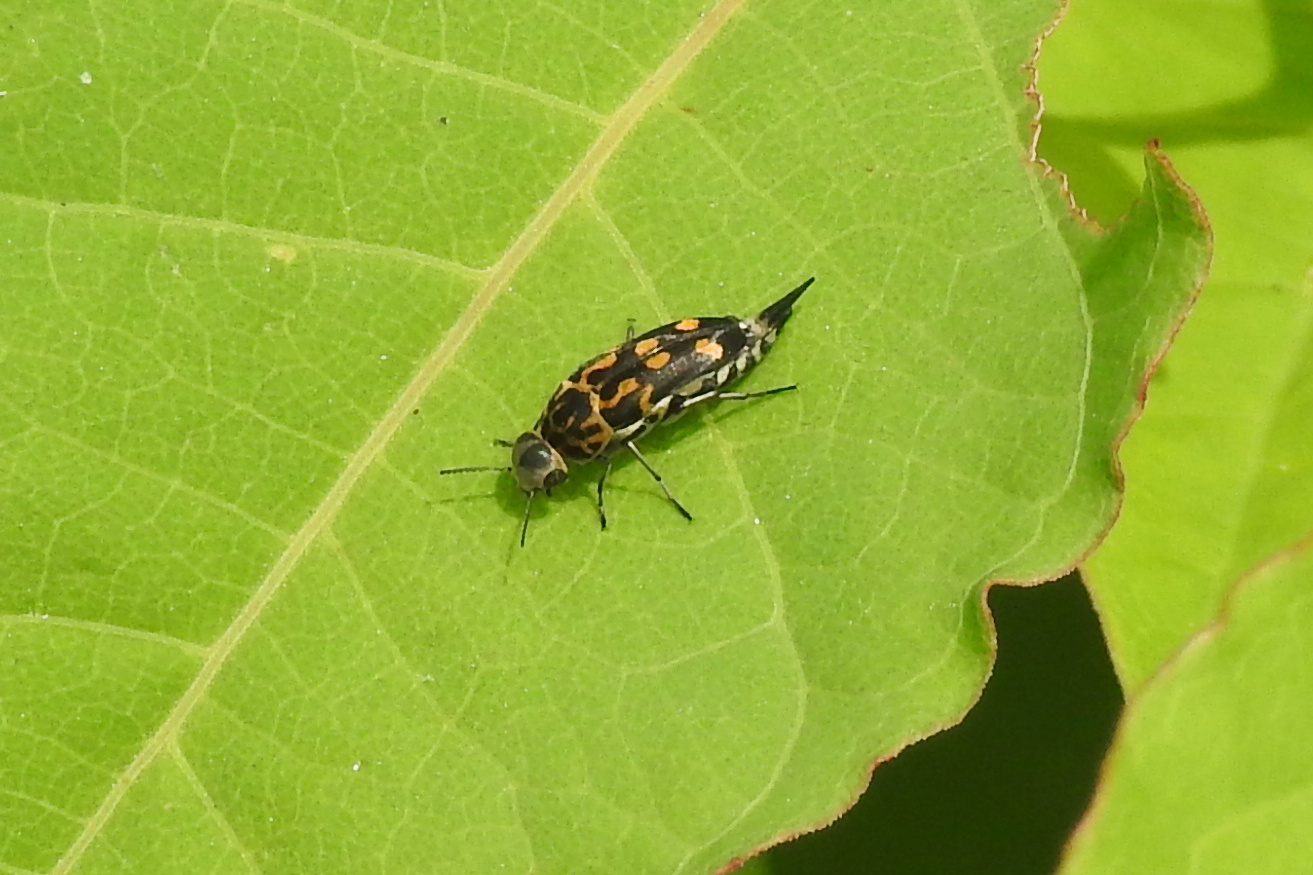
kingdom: Animalia
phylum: Arthropoda
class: Insecta
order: Coleoptera
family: Mordellidae
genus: Hoshihananomia
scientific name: Hoshihananomia octopunctata
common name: Eight-spotted tumbling flower beetle
